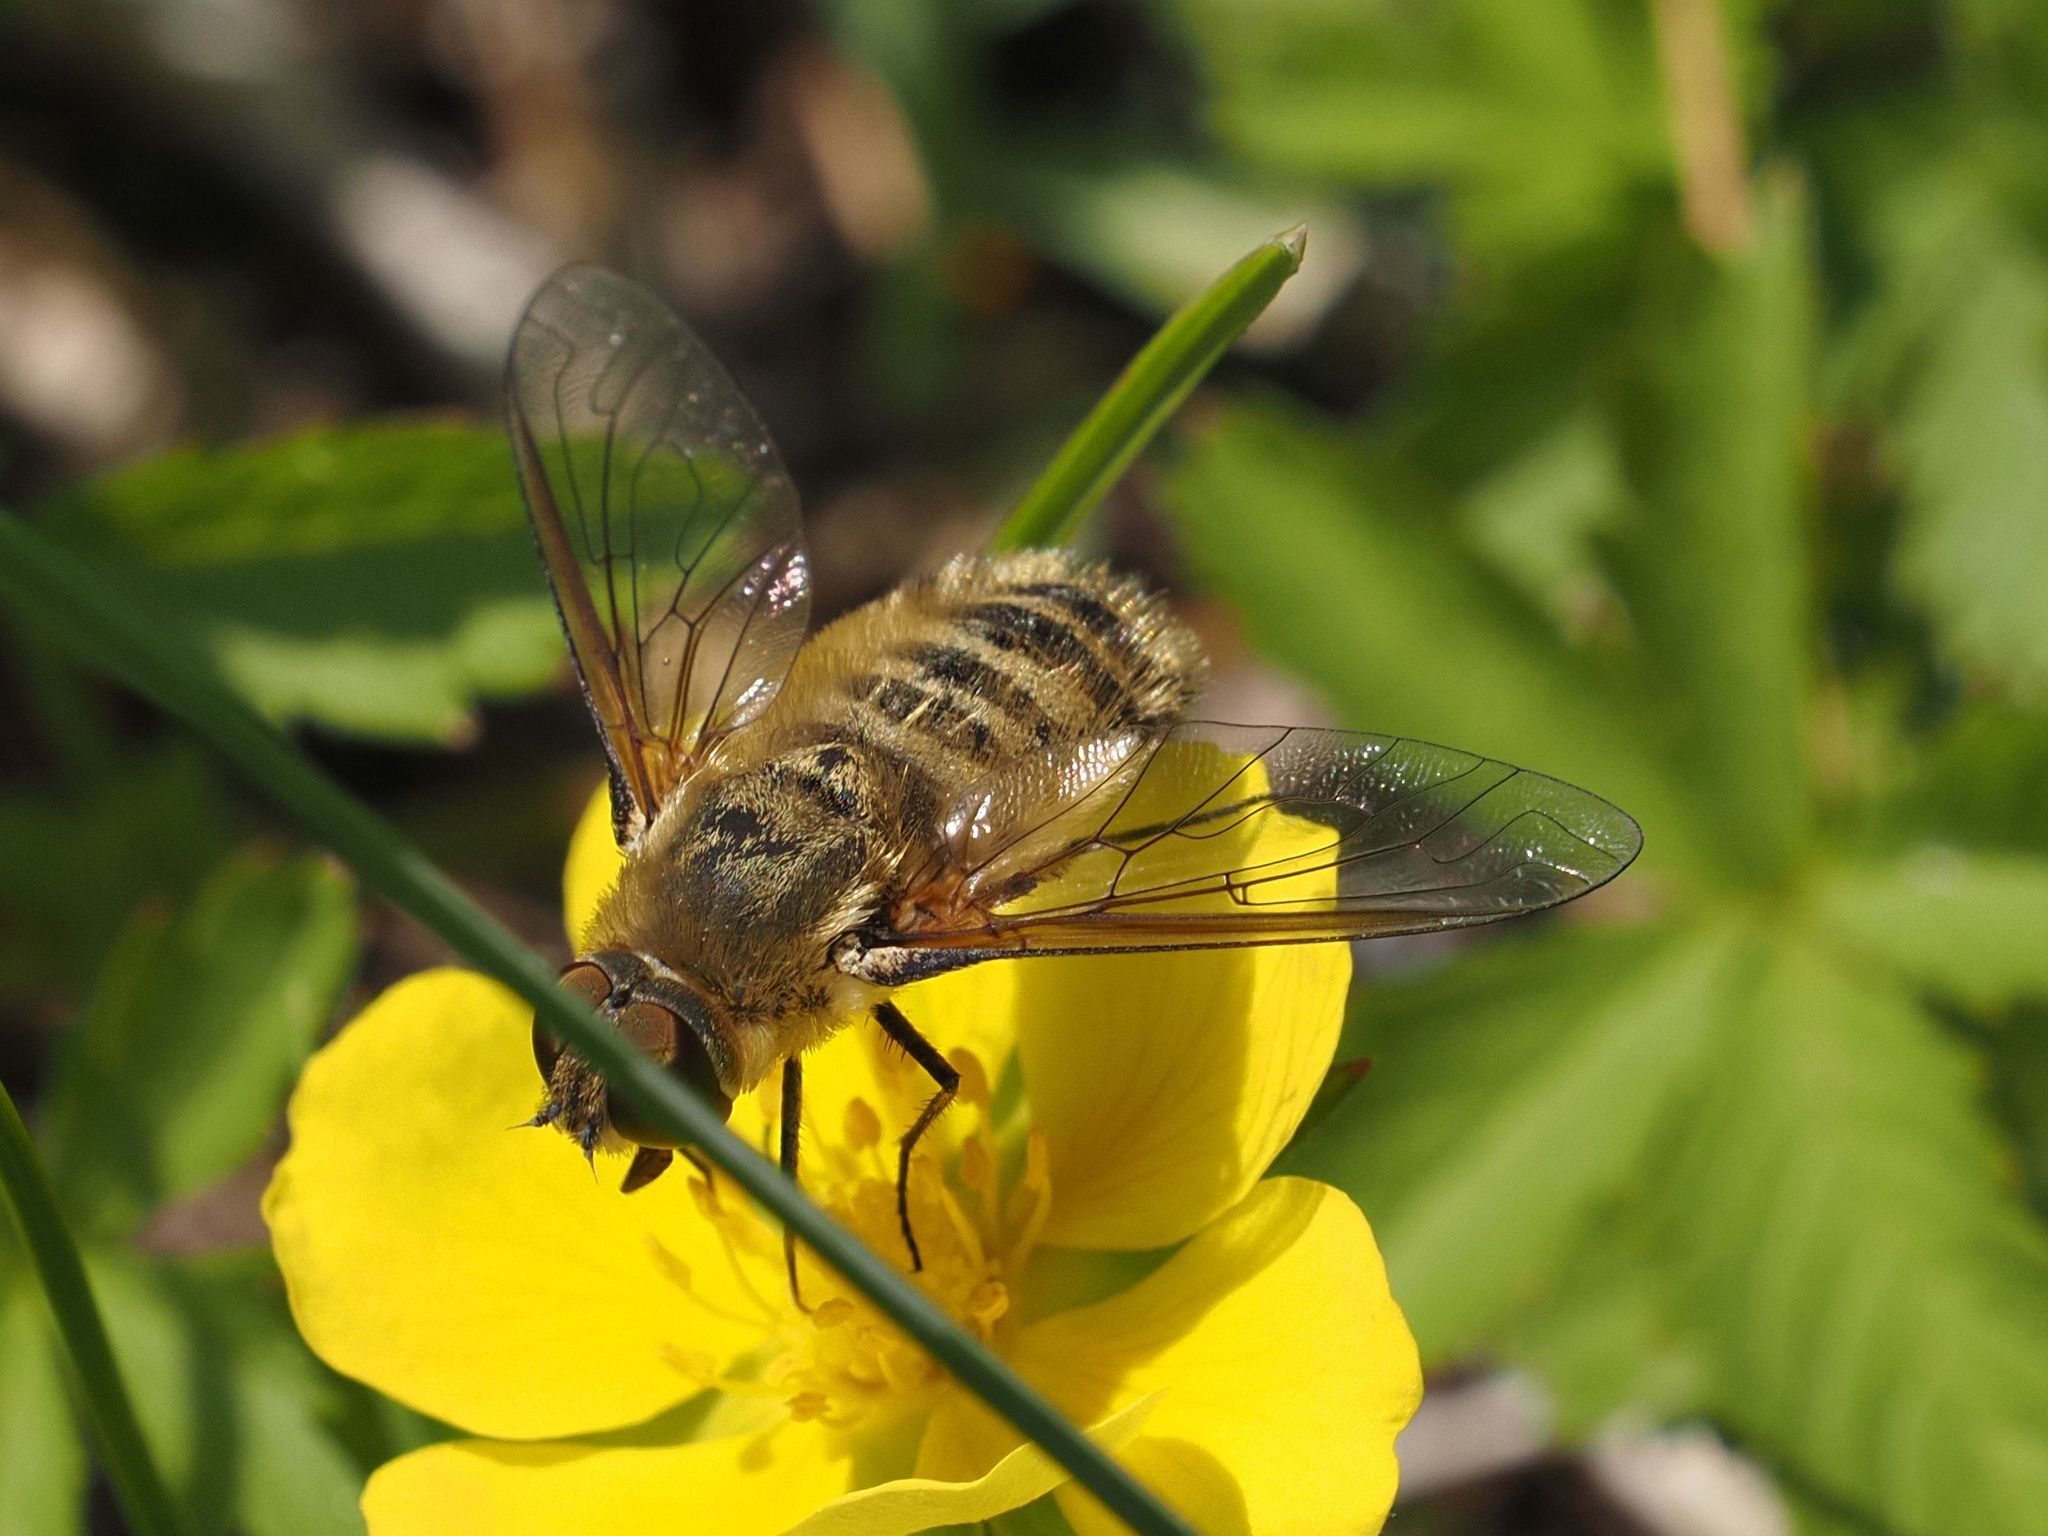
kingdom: Animalia
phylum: Arthropoda
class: Insecta
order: Diptera
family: Bombyliidae
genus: Villa
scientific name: Villa hottentotta
